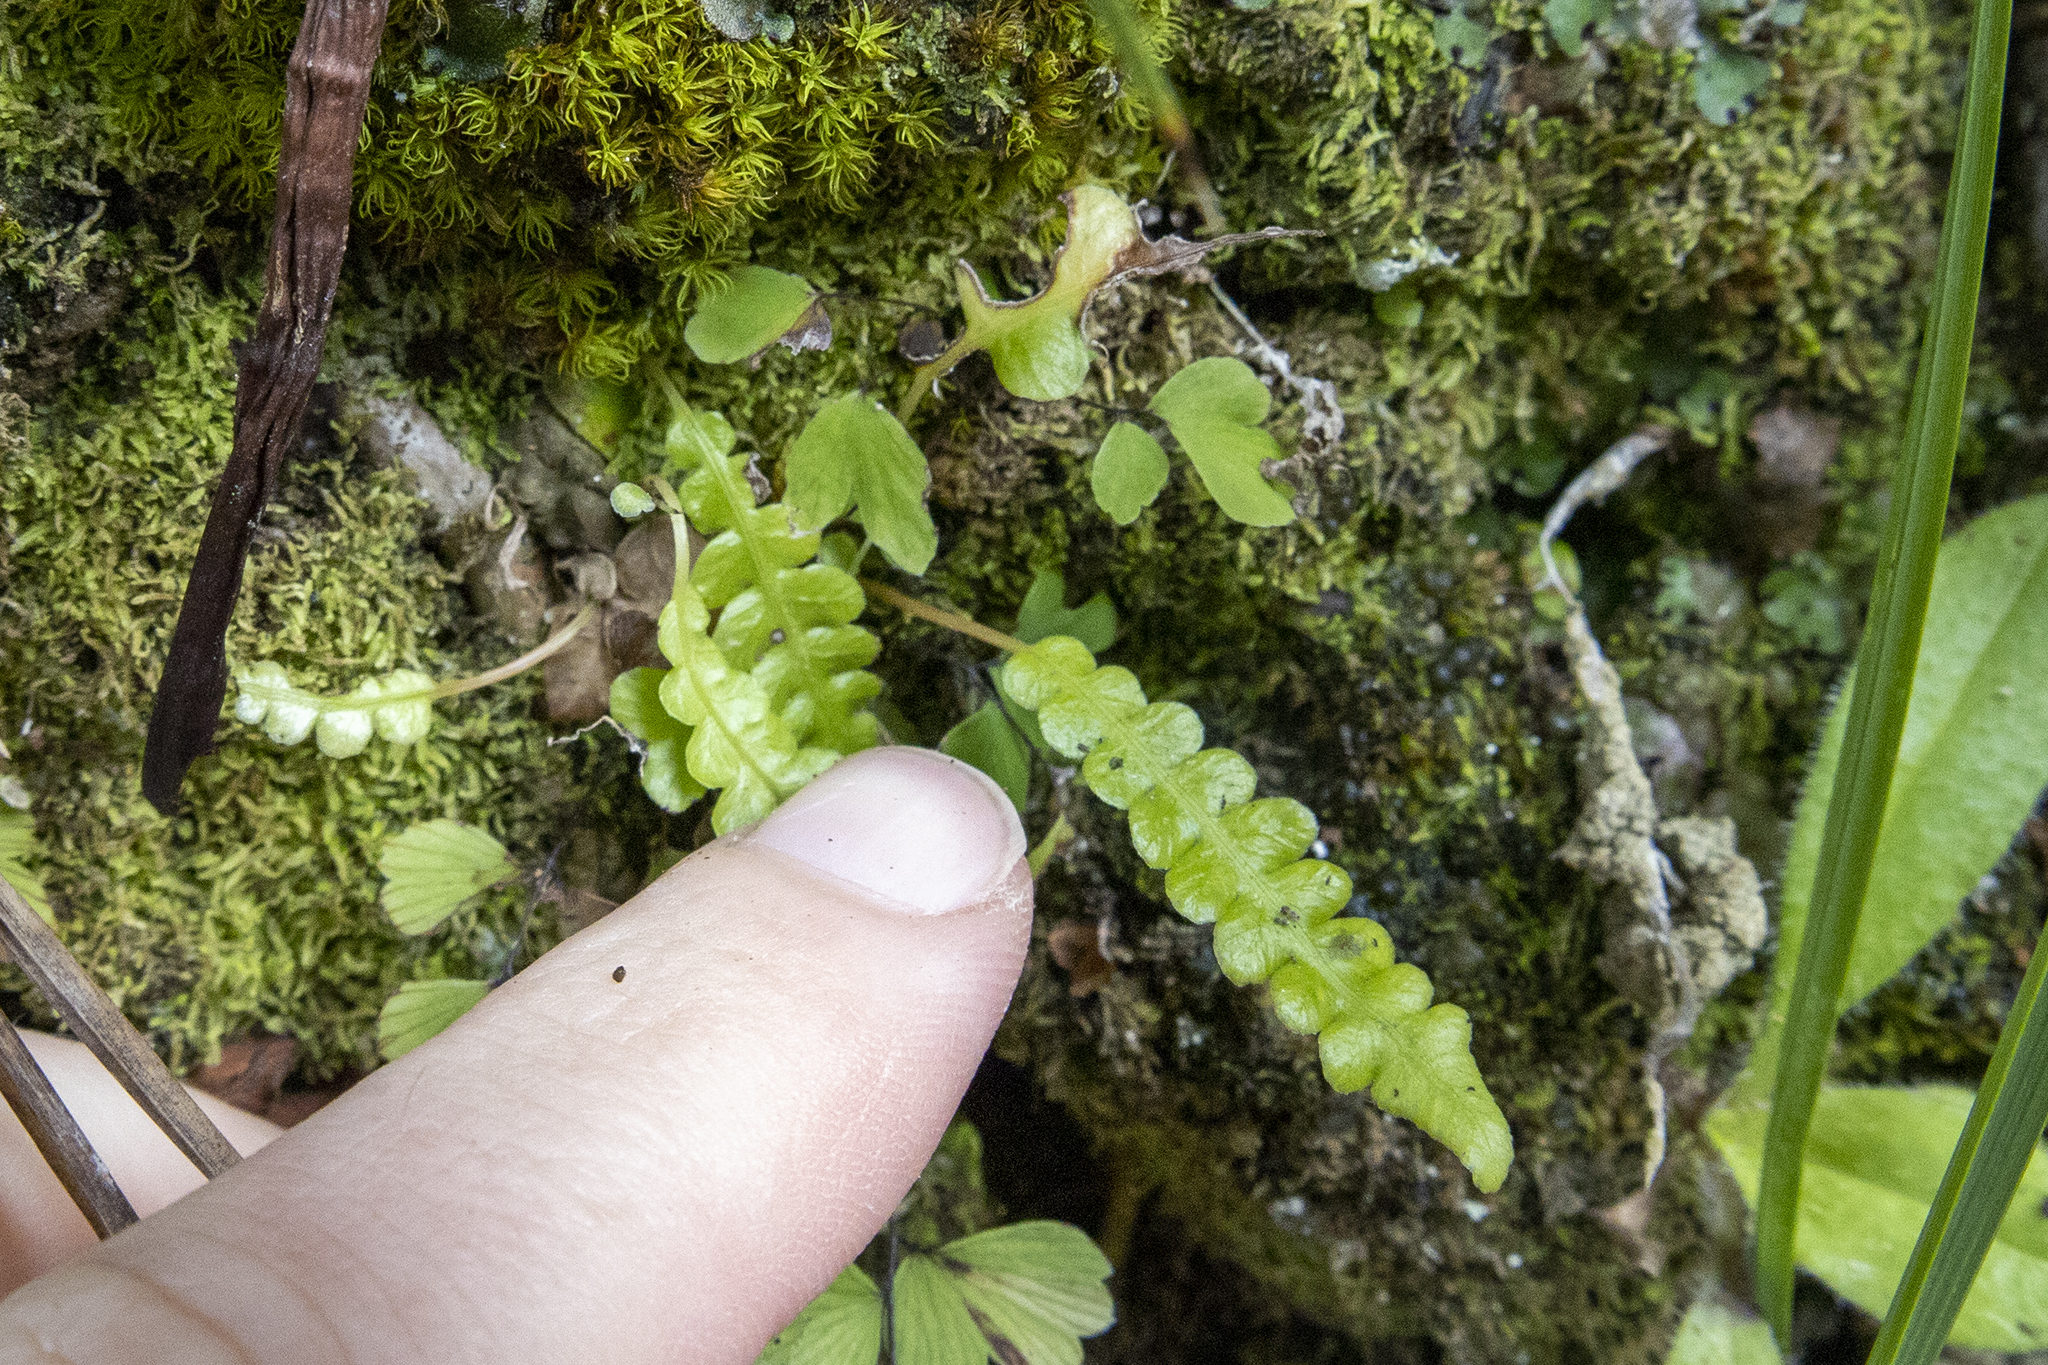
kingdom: Plantae
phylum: Tracheophyta
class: Polypodiopsida
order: Polypodiales
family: Blechnaceae
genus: Austroblechnum
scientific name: Austroblechnum penna-marina
